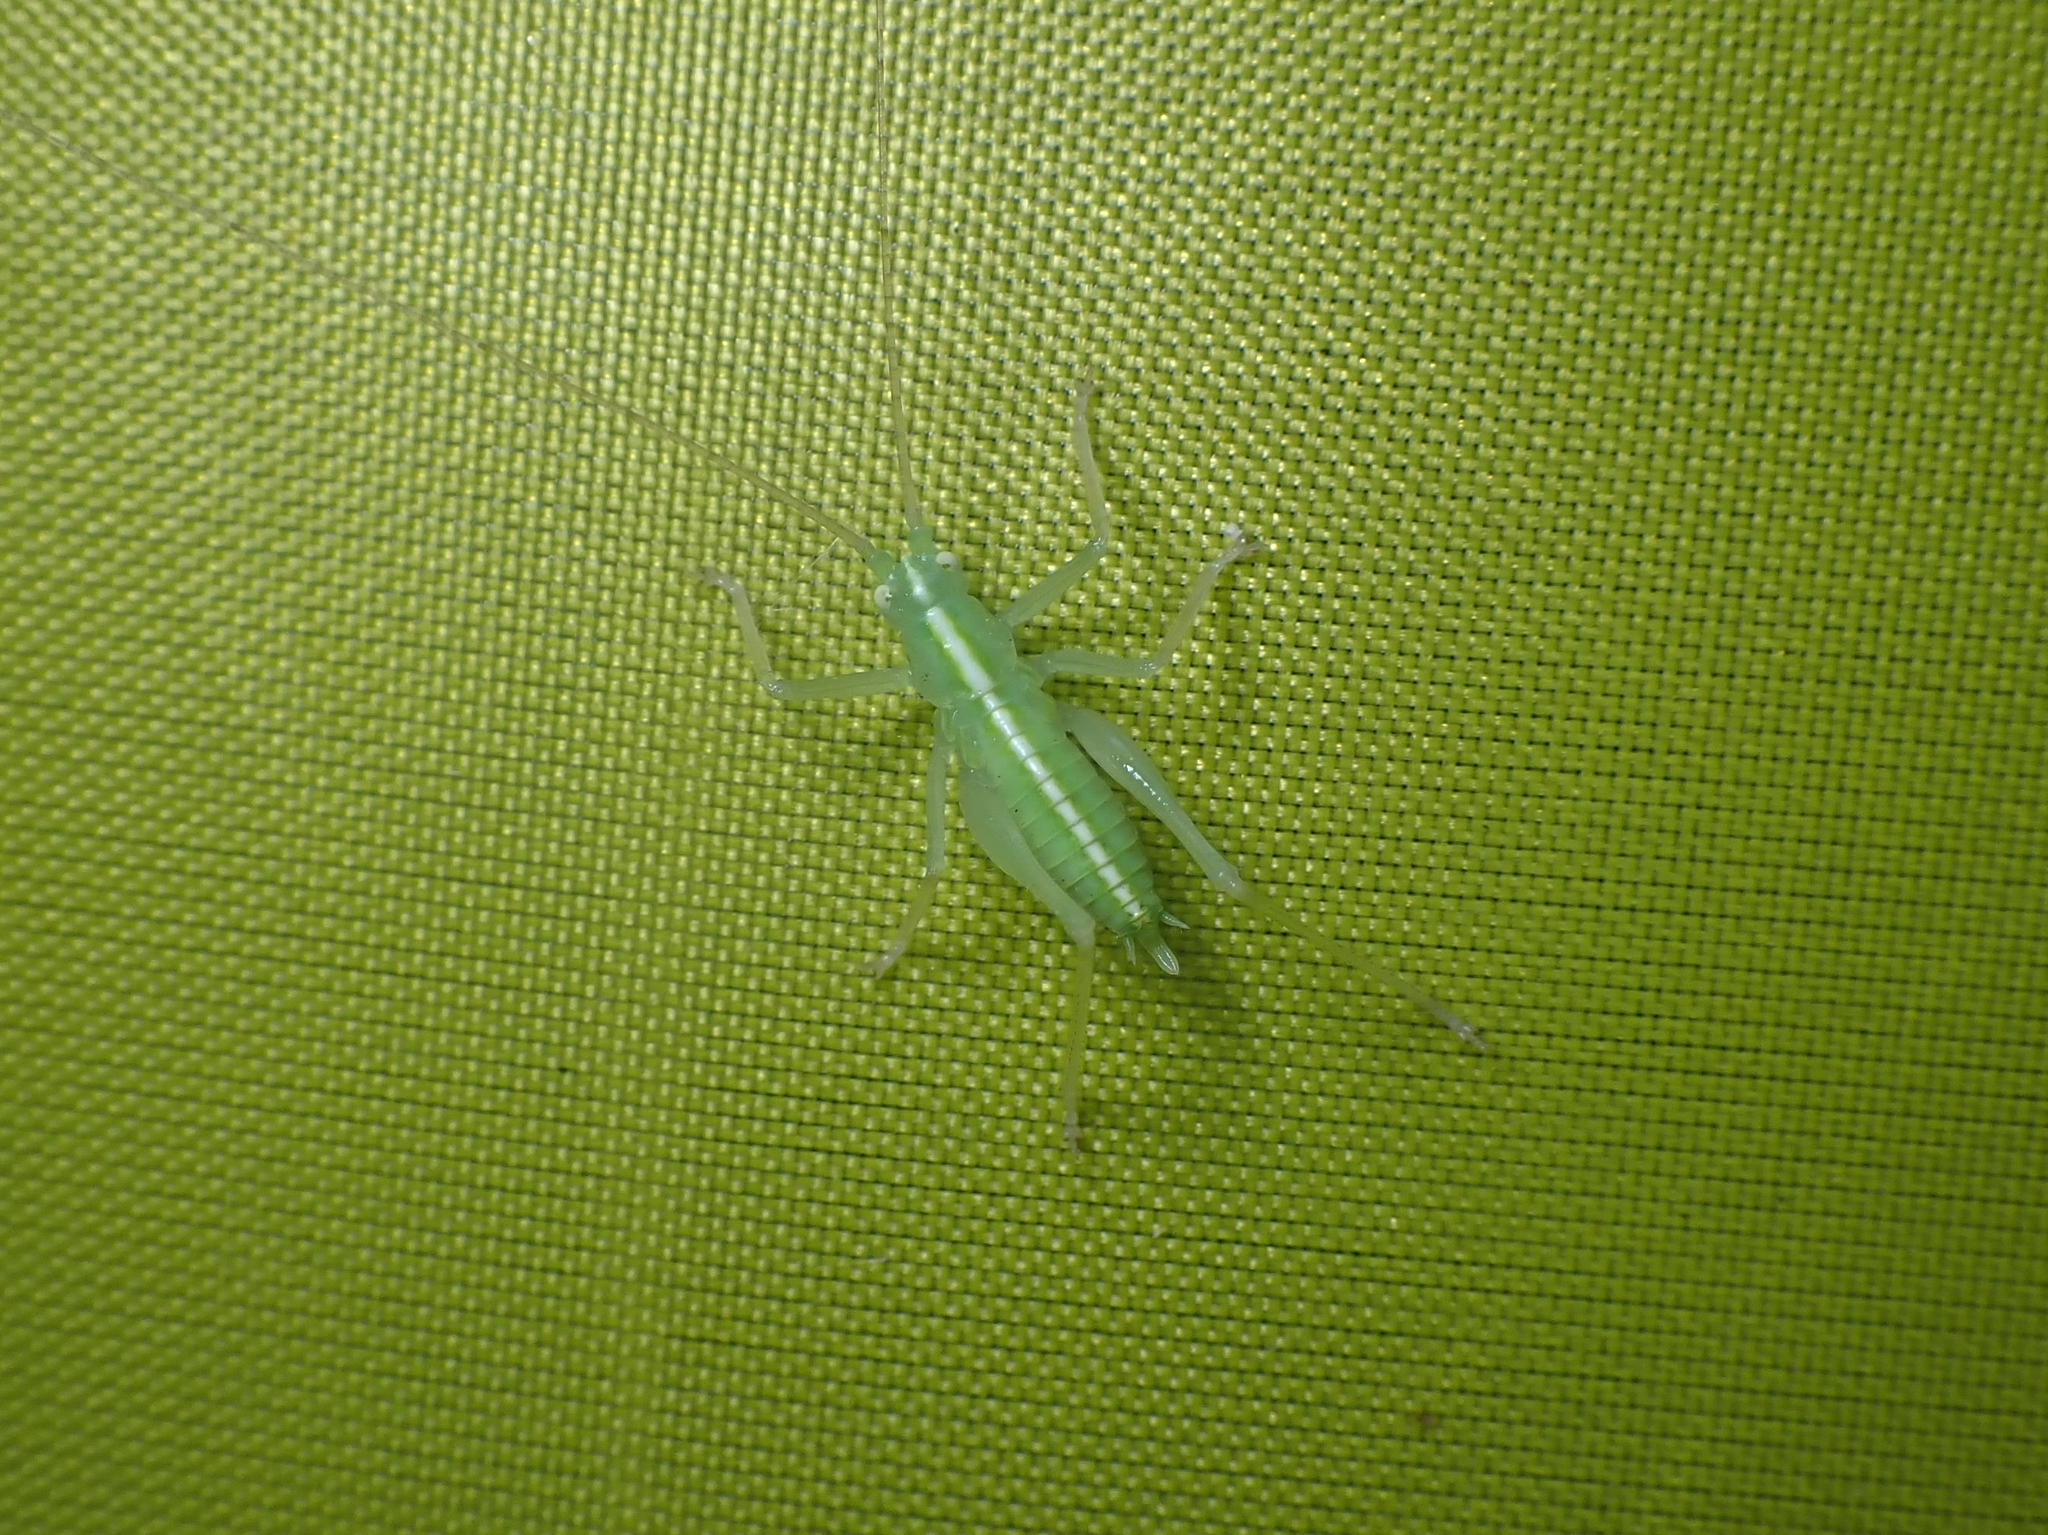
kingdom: Animalia
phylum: Arthropoda
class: Insecta
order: Orthoptera
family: Tettigoniidae
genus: Meconema
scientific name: Meconema thalassinum
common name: Oak bush-cricket
